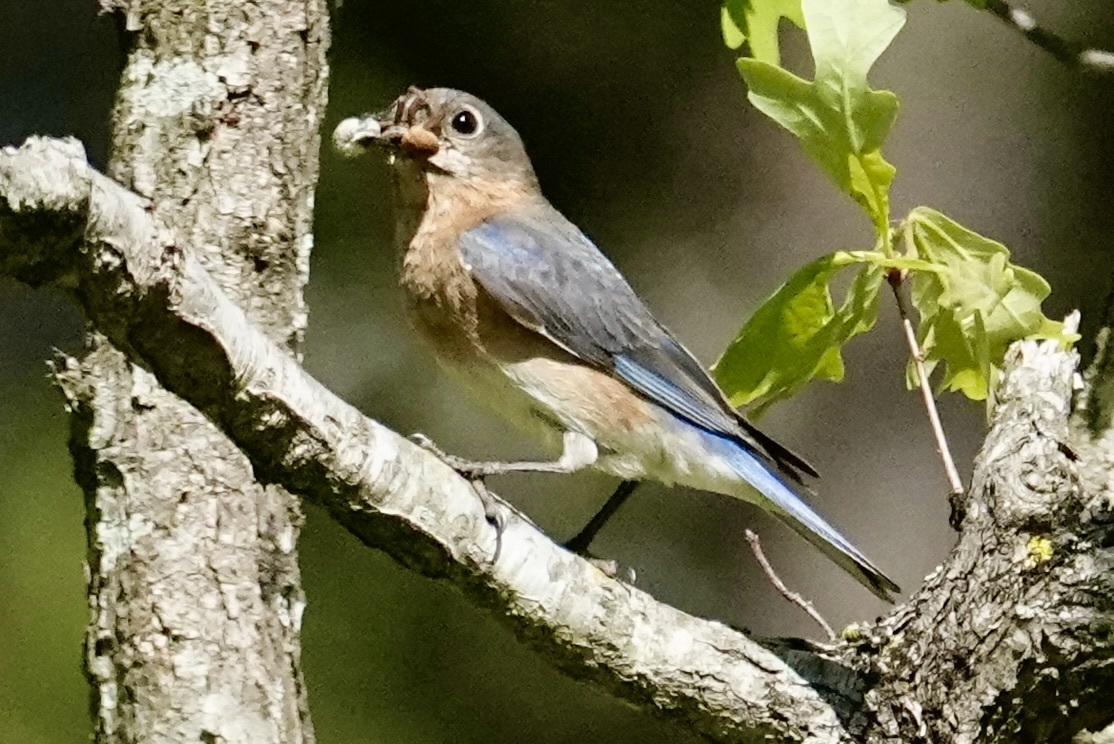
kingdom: Animalia
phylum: Chordata
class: Aves
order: Passeriformes
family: Turdidae
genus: Sialia
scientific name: Sialia sialis
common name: Eastern bluebird
